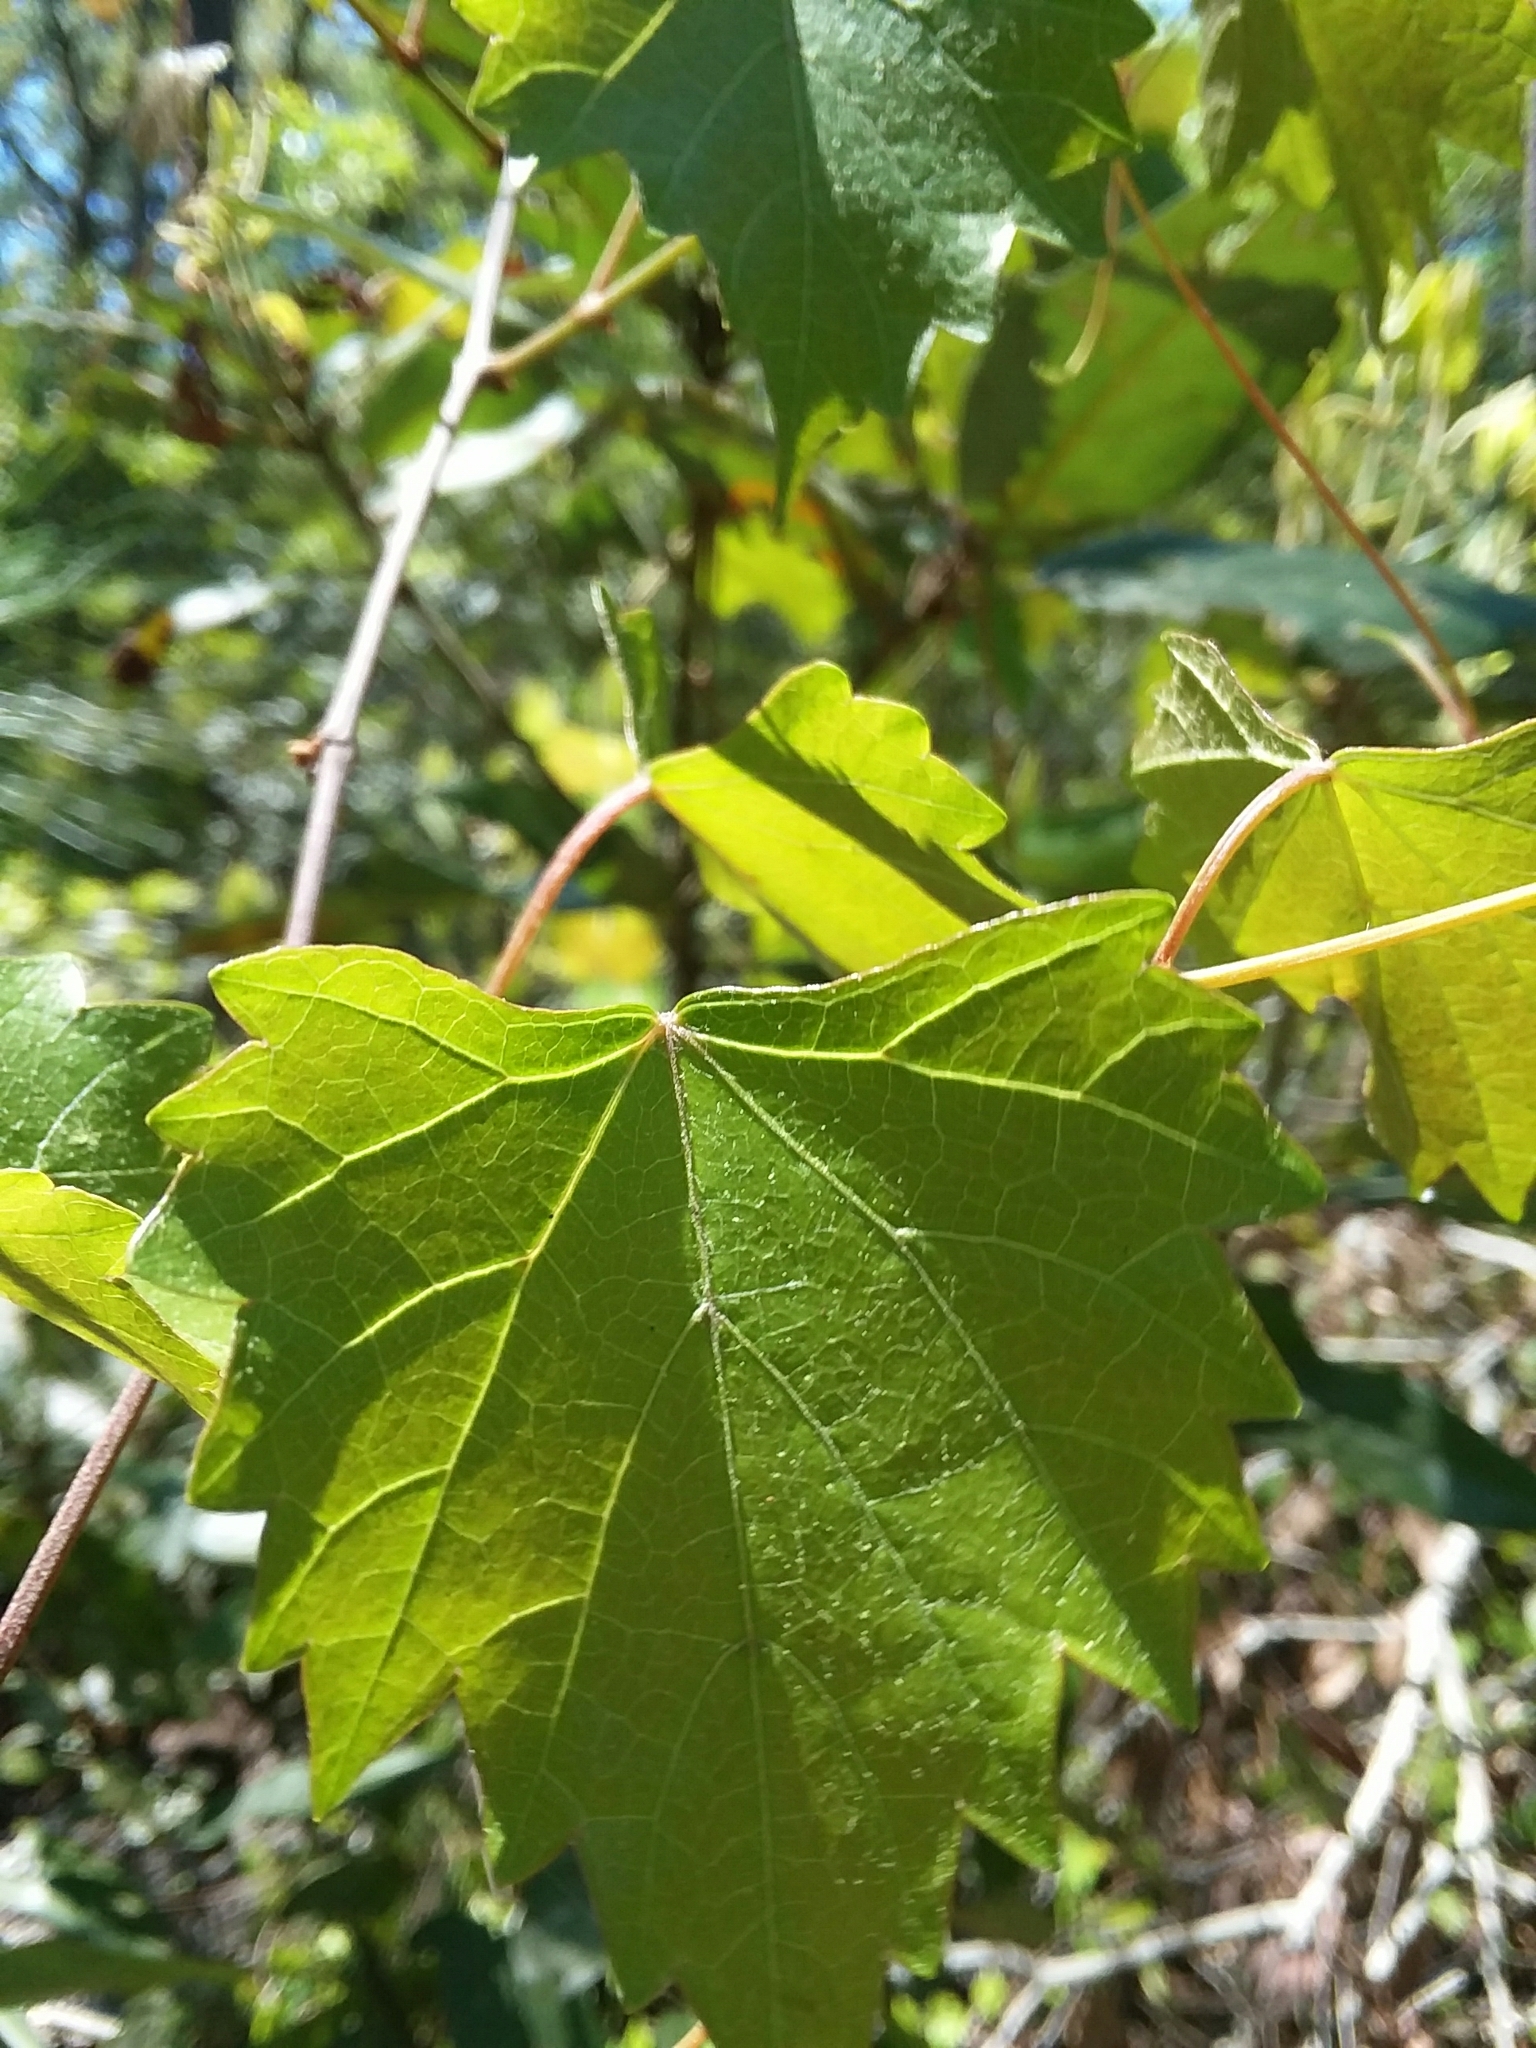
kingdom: Plantae
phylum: Tracheophyta
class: Magnoliopsida
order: Vitales
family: Vitaceae
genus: Vitis
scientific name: Vitis rotundifolia
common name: Muscadine grape
